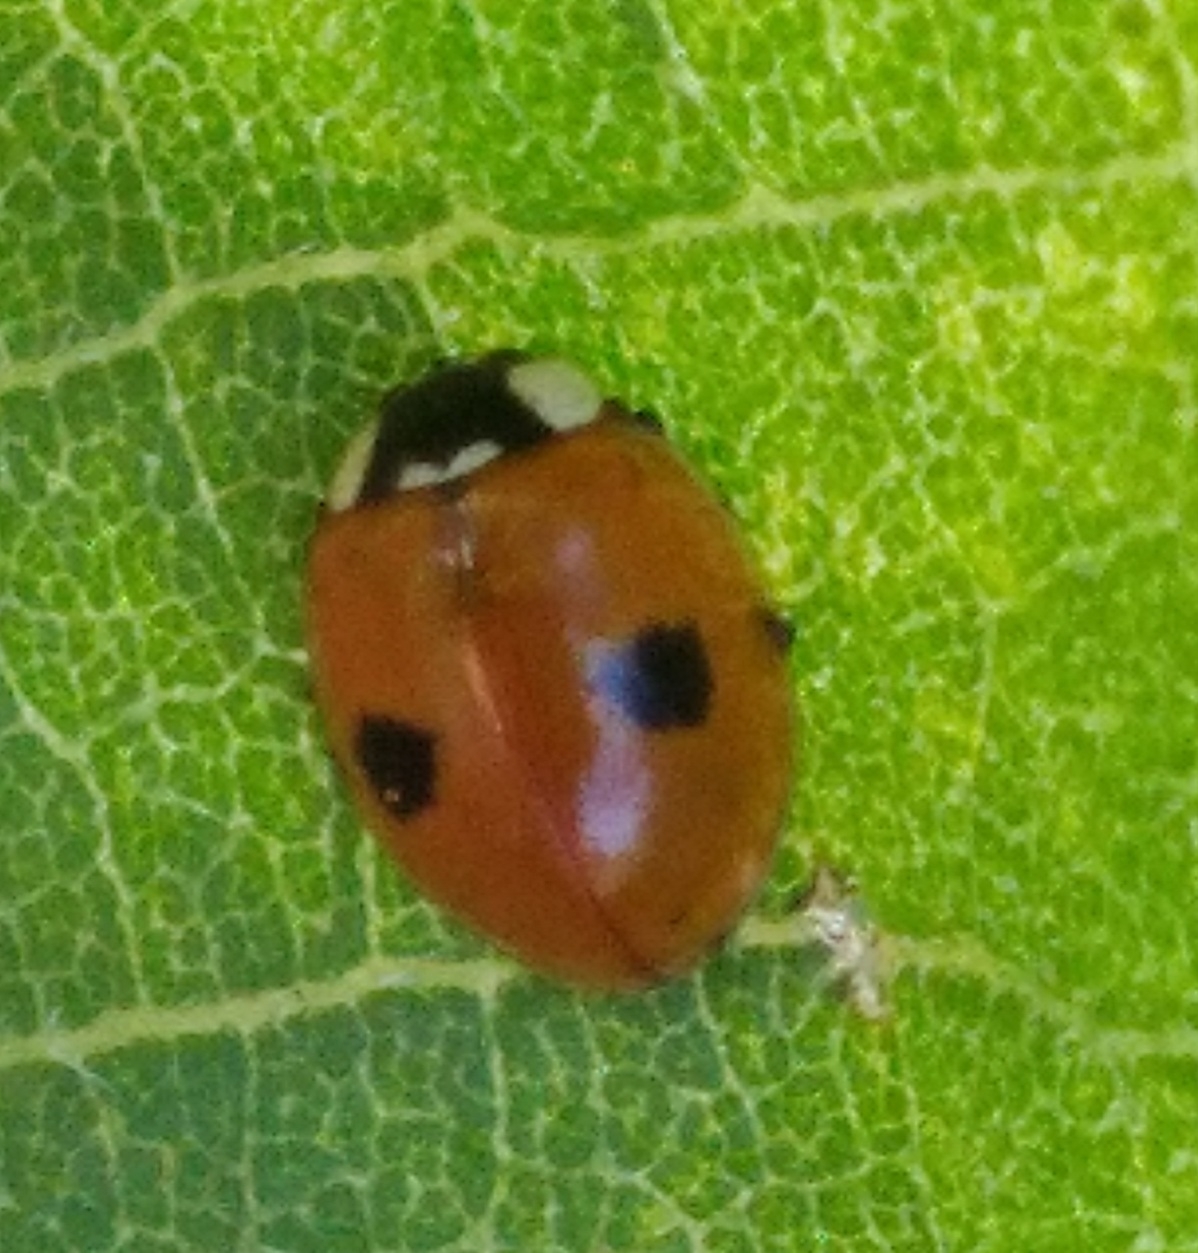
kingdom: Animalia
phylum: Arthropoda
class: Insecta
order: Coleoptera
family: Coccinellidae
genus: Adalia
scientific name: Adalia bipunctata
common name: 2-spot ladybird
